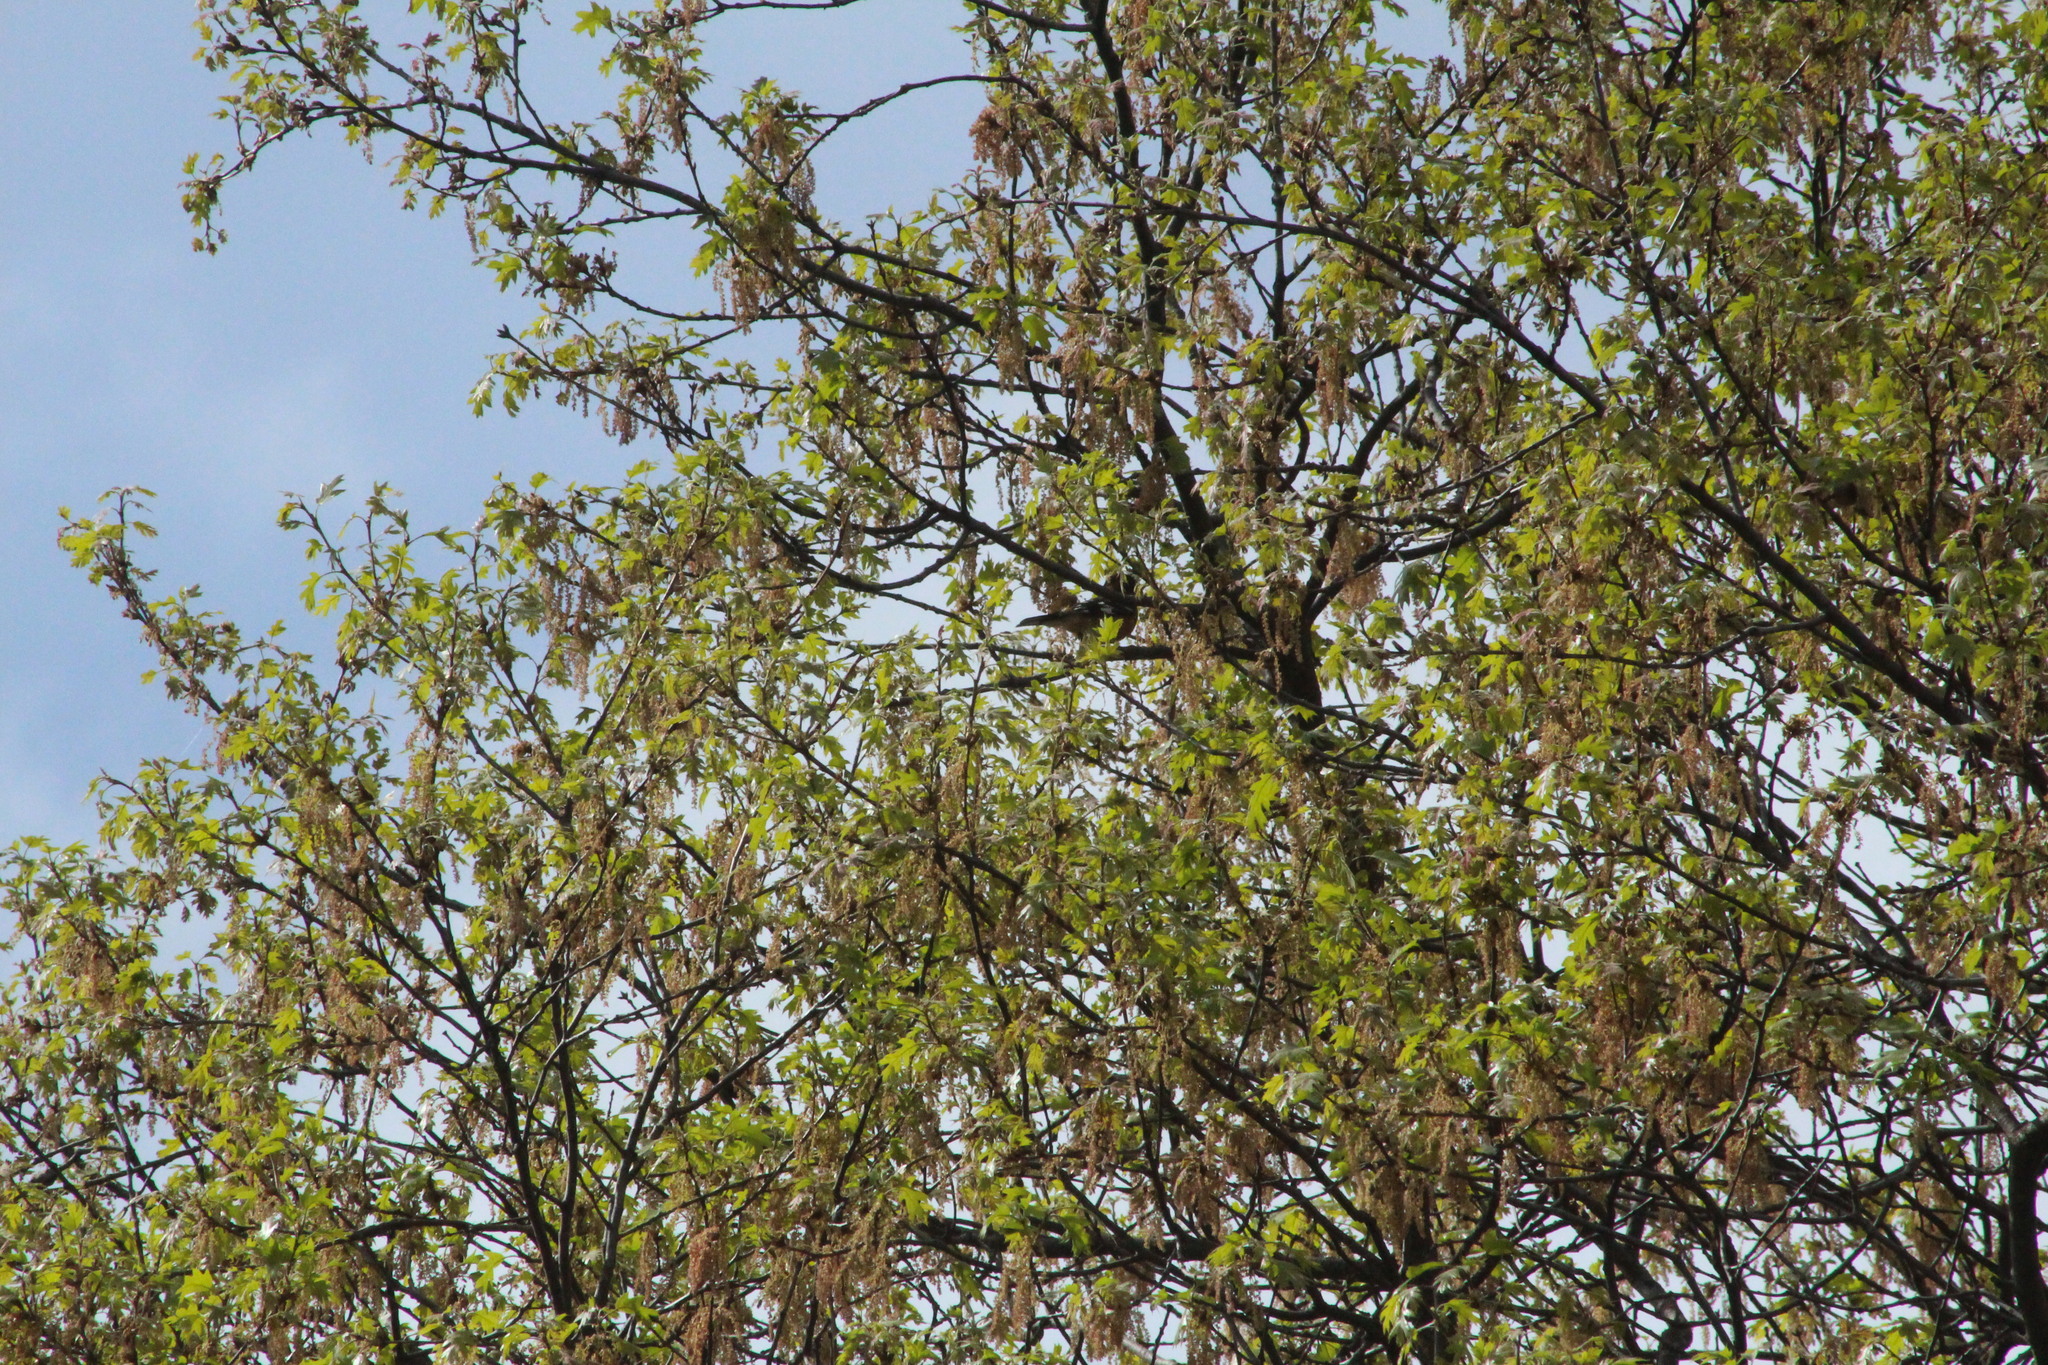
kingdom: Animalia
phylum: Chordata
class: Aves
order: Passeriformes
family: Cardinalidae
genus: Pheucticus
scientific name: Pheucticus melanocephalus
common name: Black-headed grosbeak
